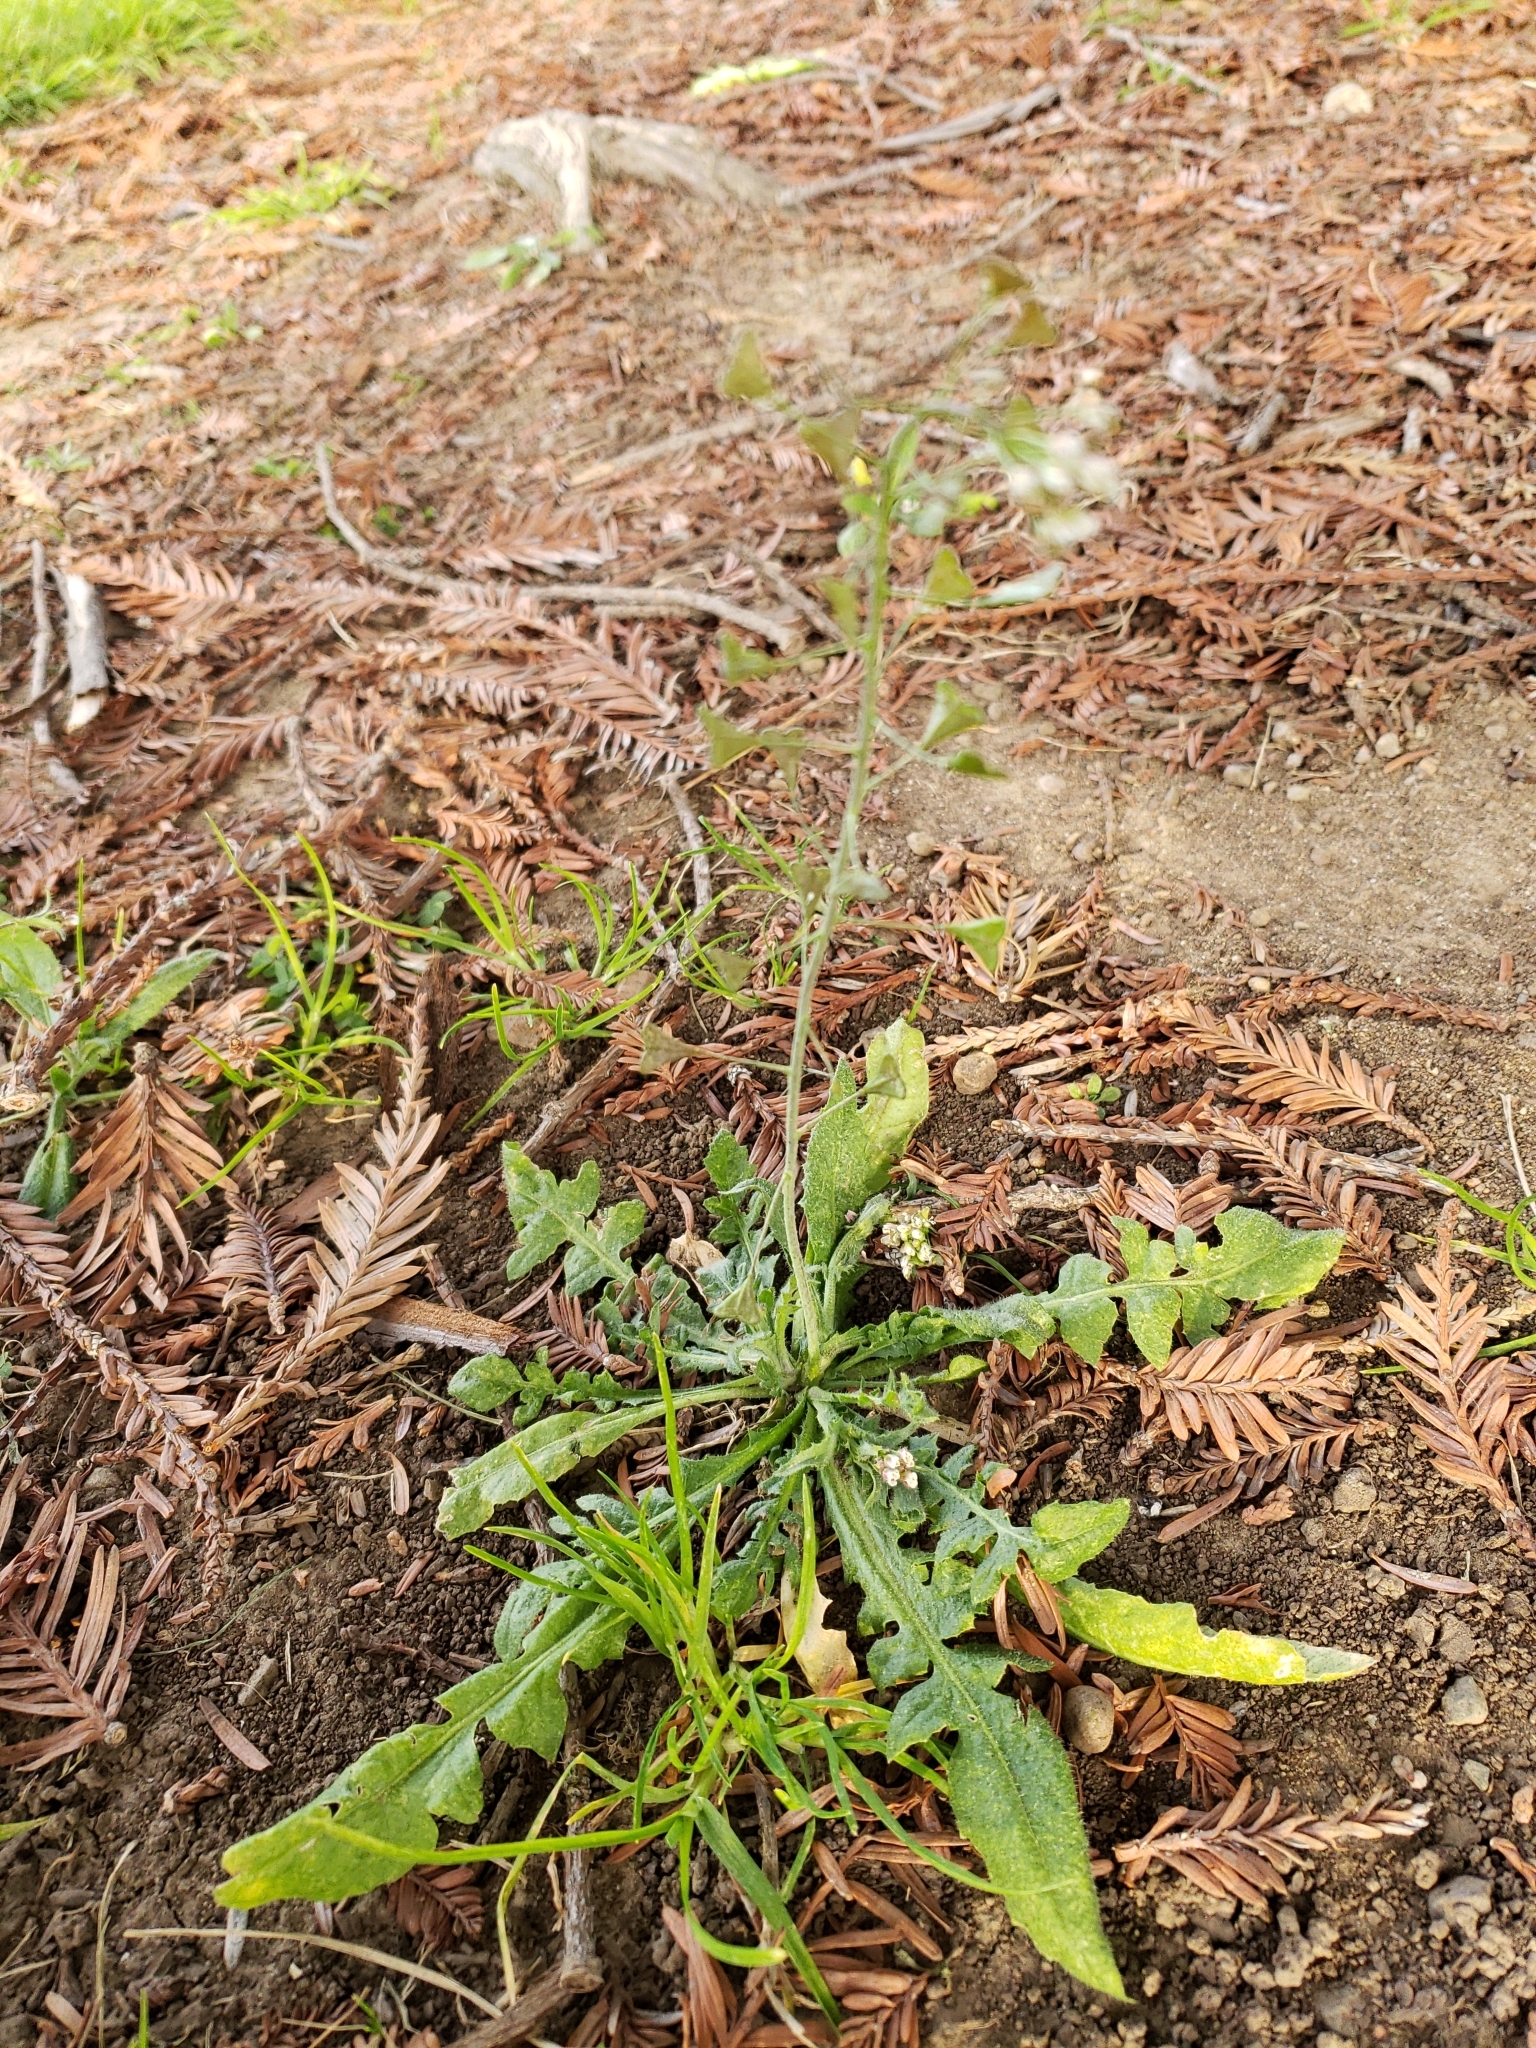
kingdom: Plantae
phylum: Tracheophyta
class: Magnoliopsida
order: Brassicales
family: Brassicaceae
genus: Capsella
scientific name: Capsella bursa-pastoris
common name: Shepherd's purse
